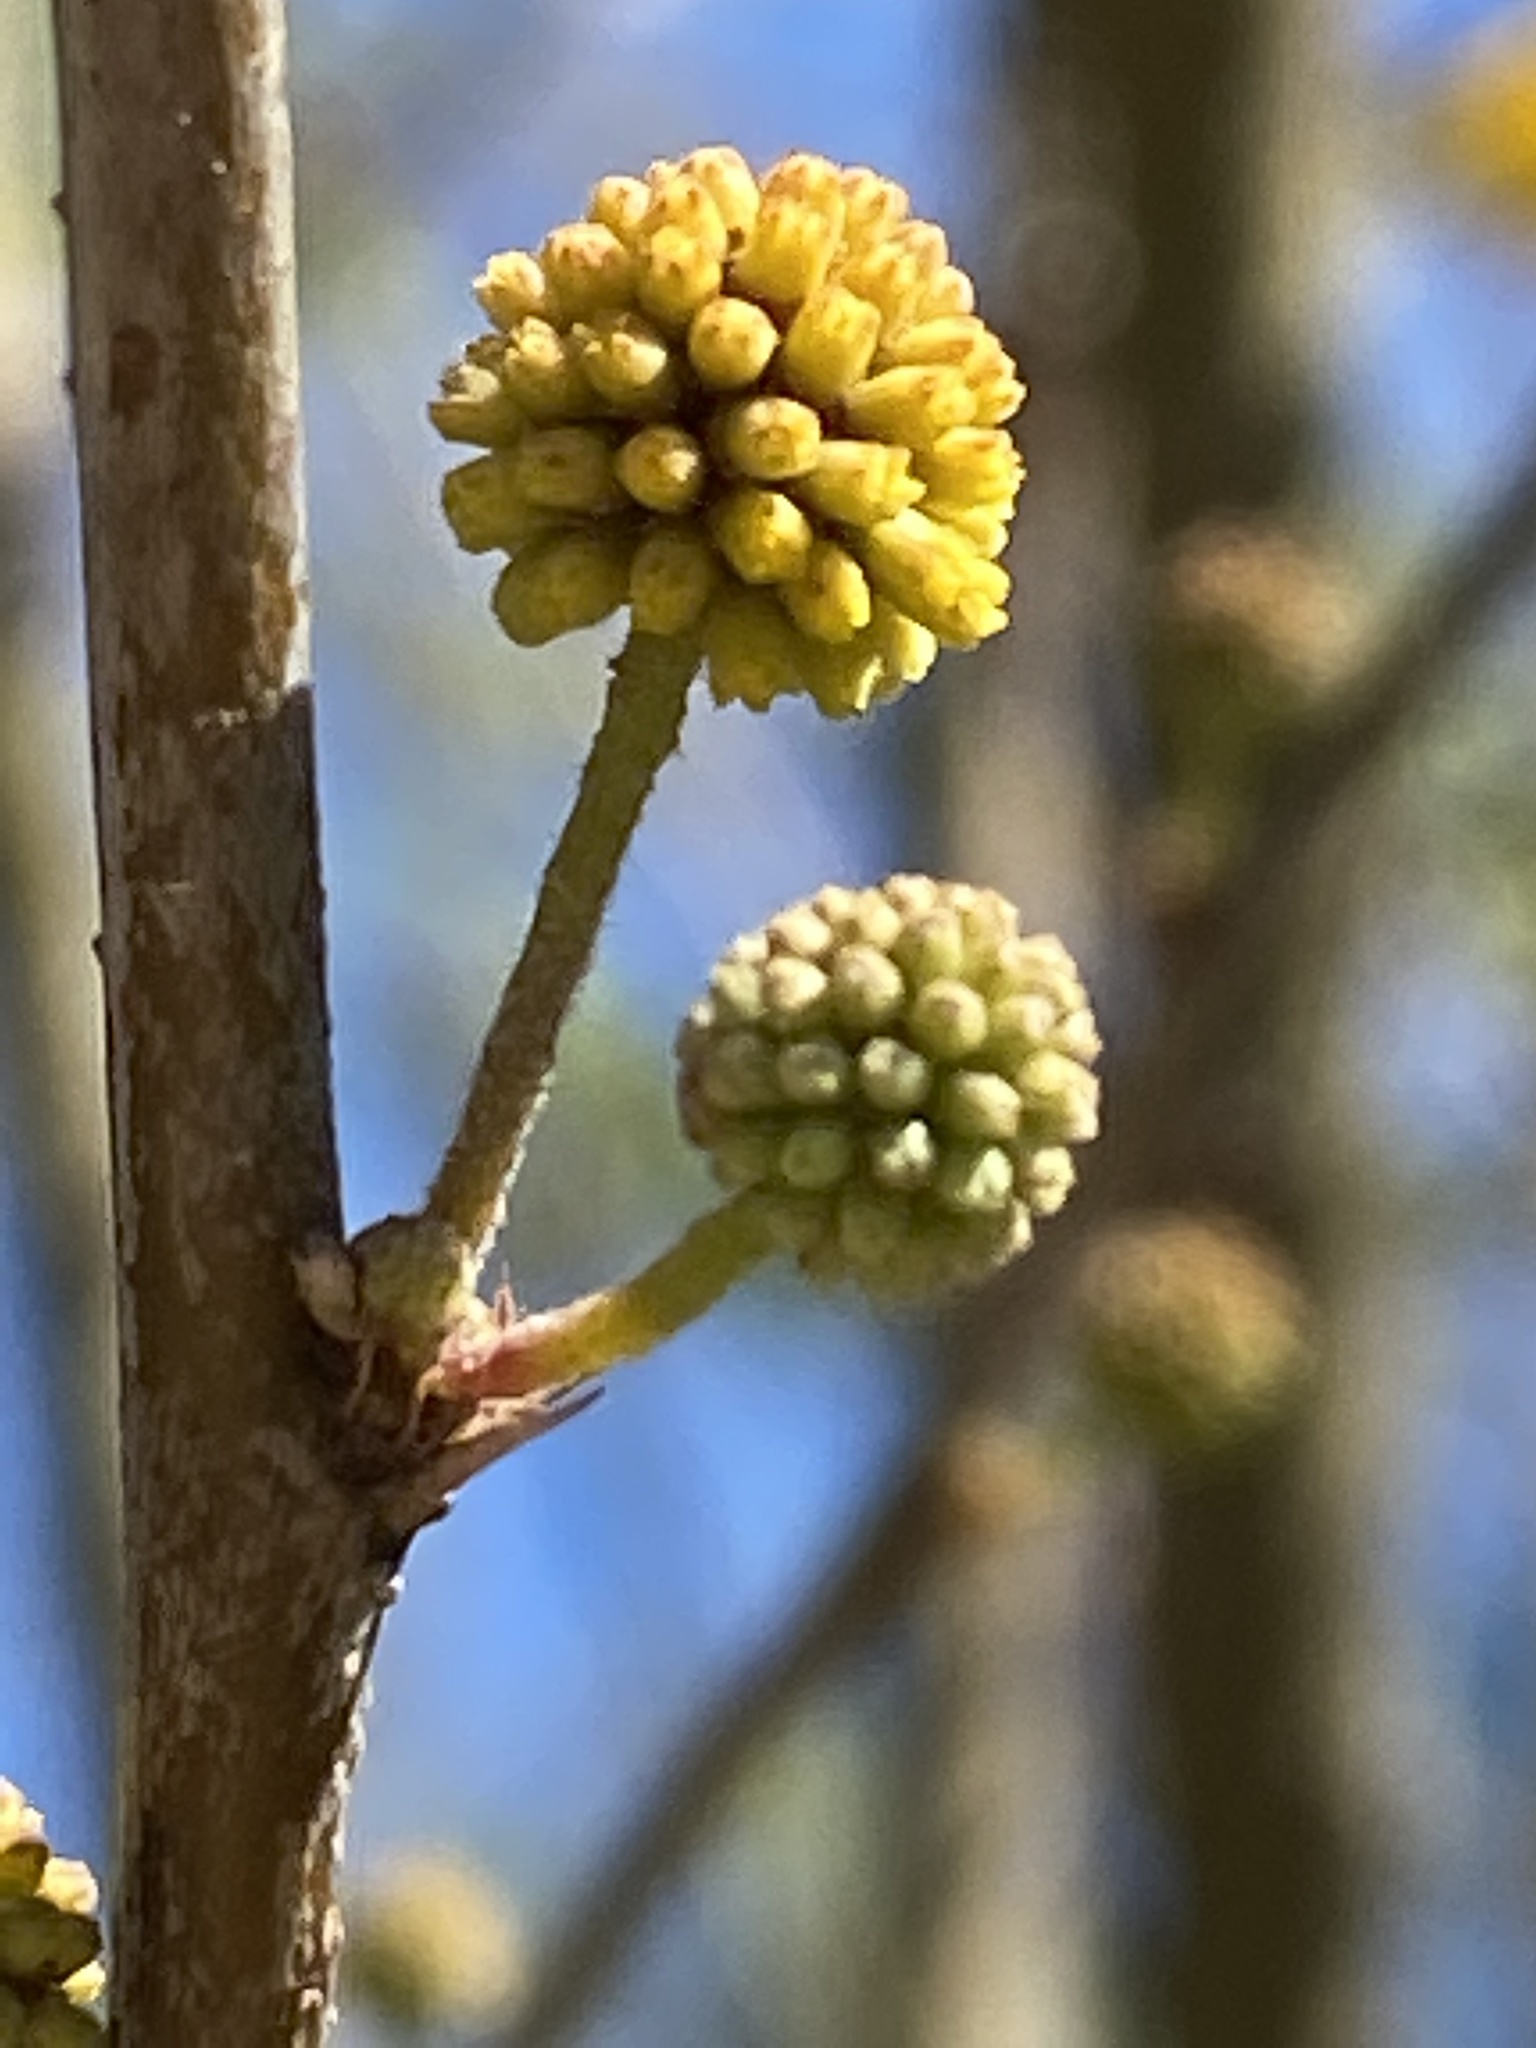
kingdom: Plantae
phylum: Tracheophyta
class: Magnoliopsida
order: Fabales
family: Fabaceae
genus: Vachellia
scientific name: Vachellia farnesiana
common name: Sweet acacia
